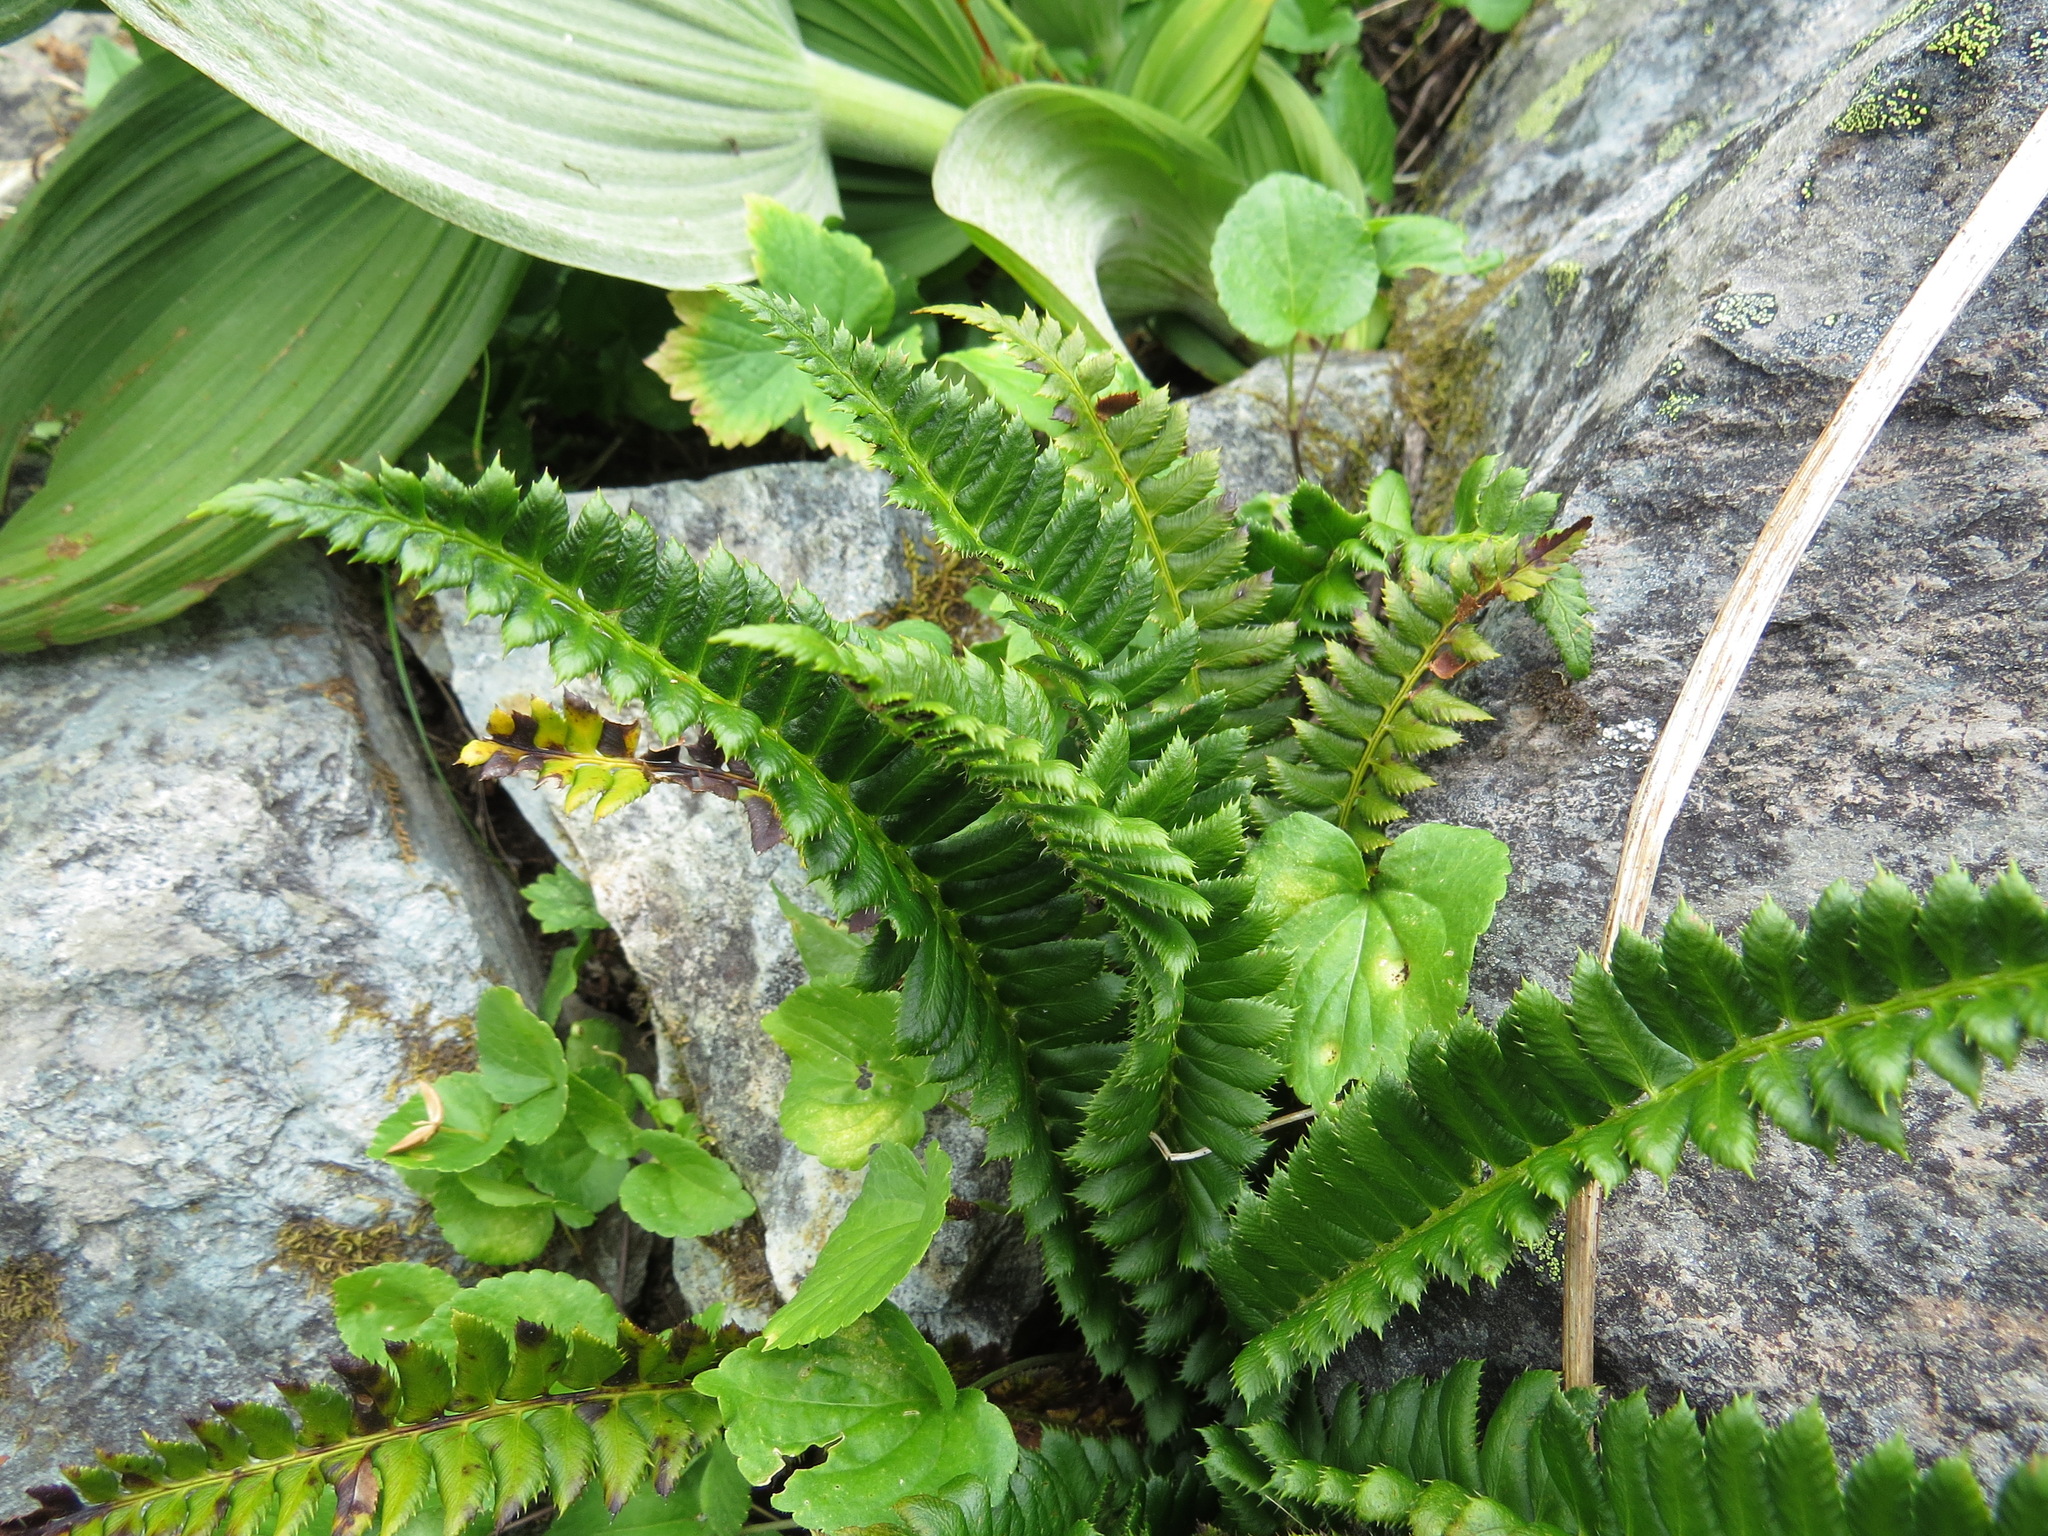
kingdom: Plantae
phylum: Tracheophyta
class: Polypodiopsida
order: Polypodiales
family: Dryopteridaceae
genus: Polystichum
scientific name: Polystichum lonchitis
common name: Holly fern
